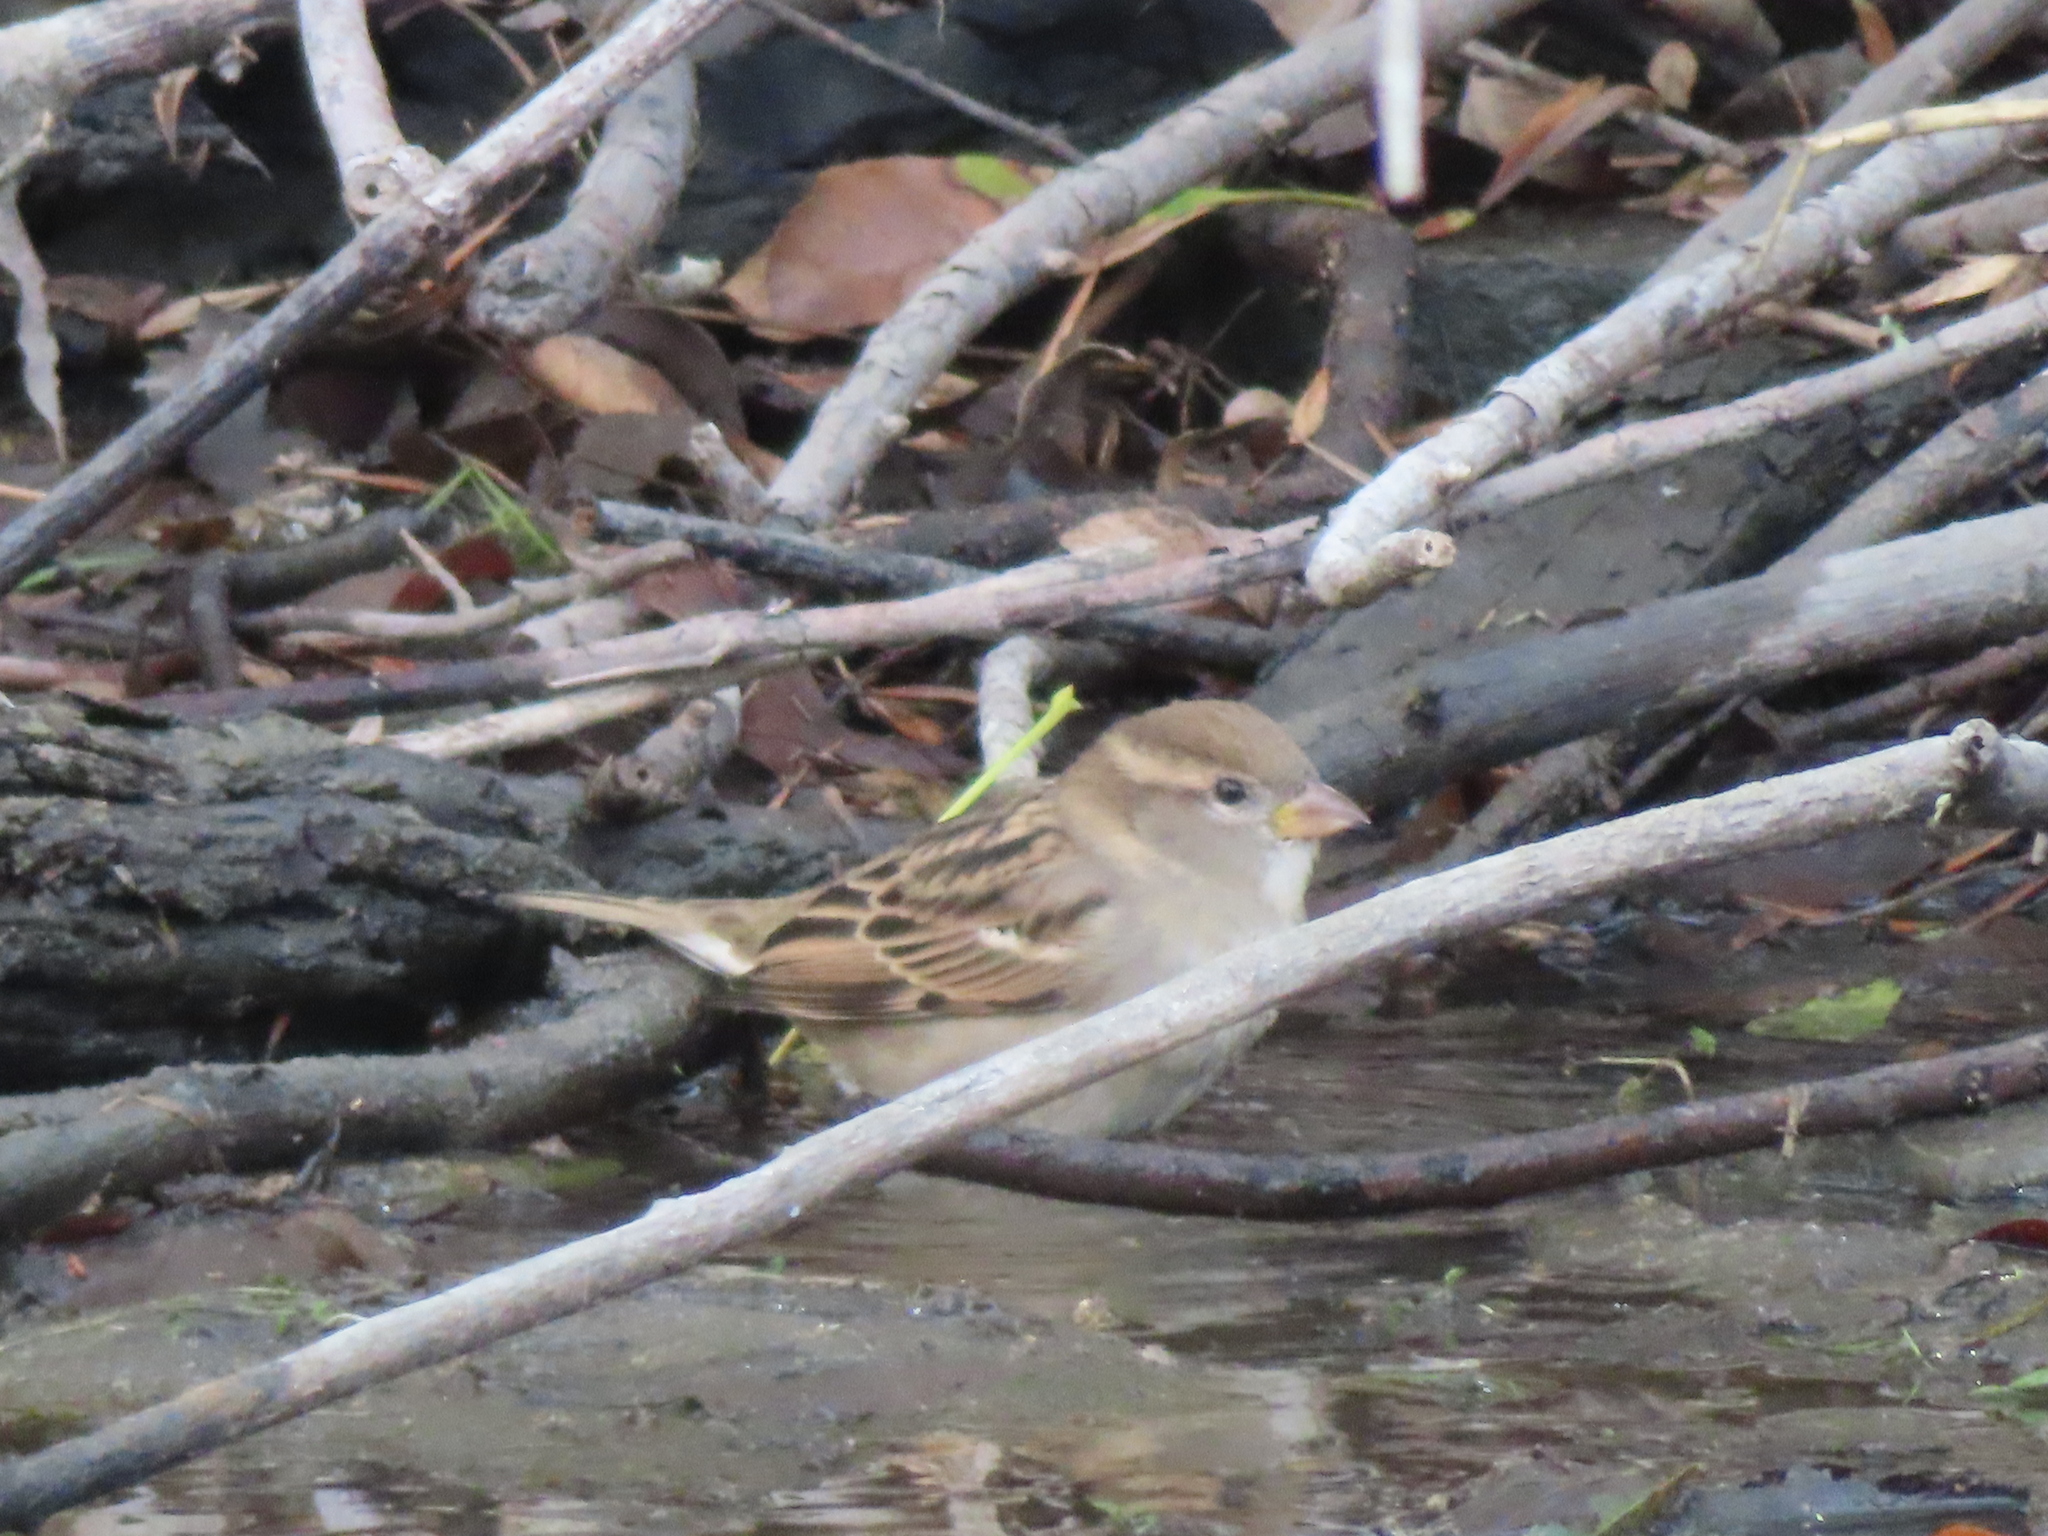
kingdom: Animalia
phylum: Chordata
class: Aves
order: Passeriformes
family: Passeridae
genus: Passer
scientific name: Passer domesticus
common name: House sparrow
